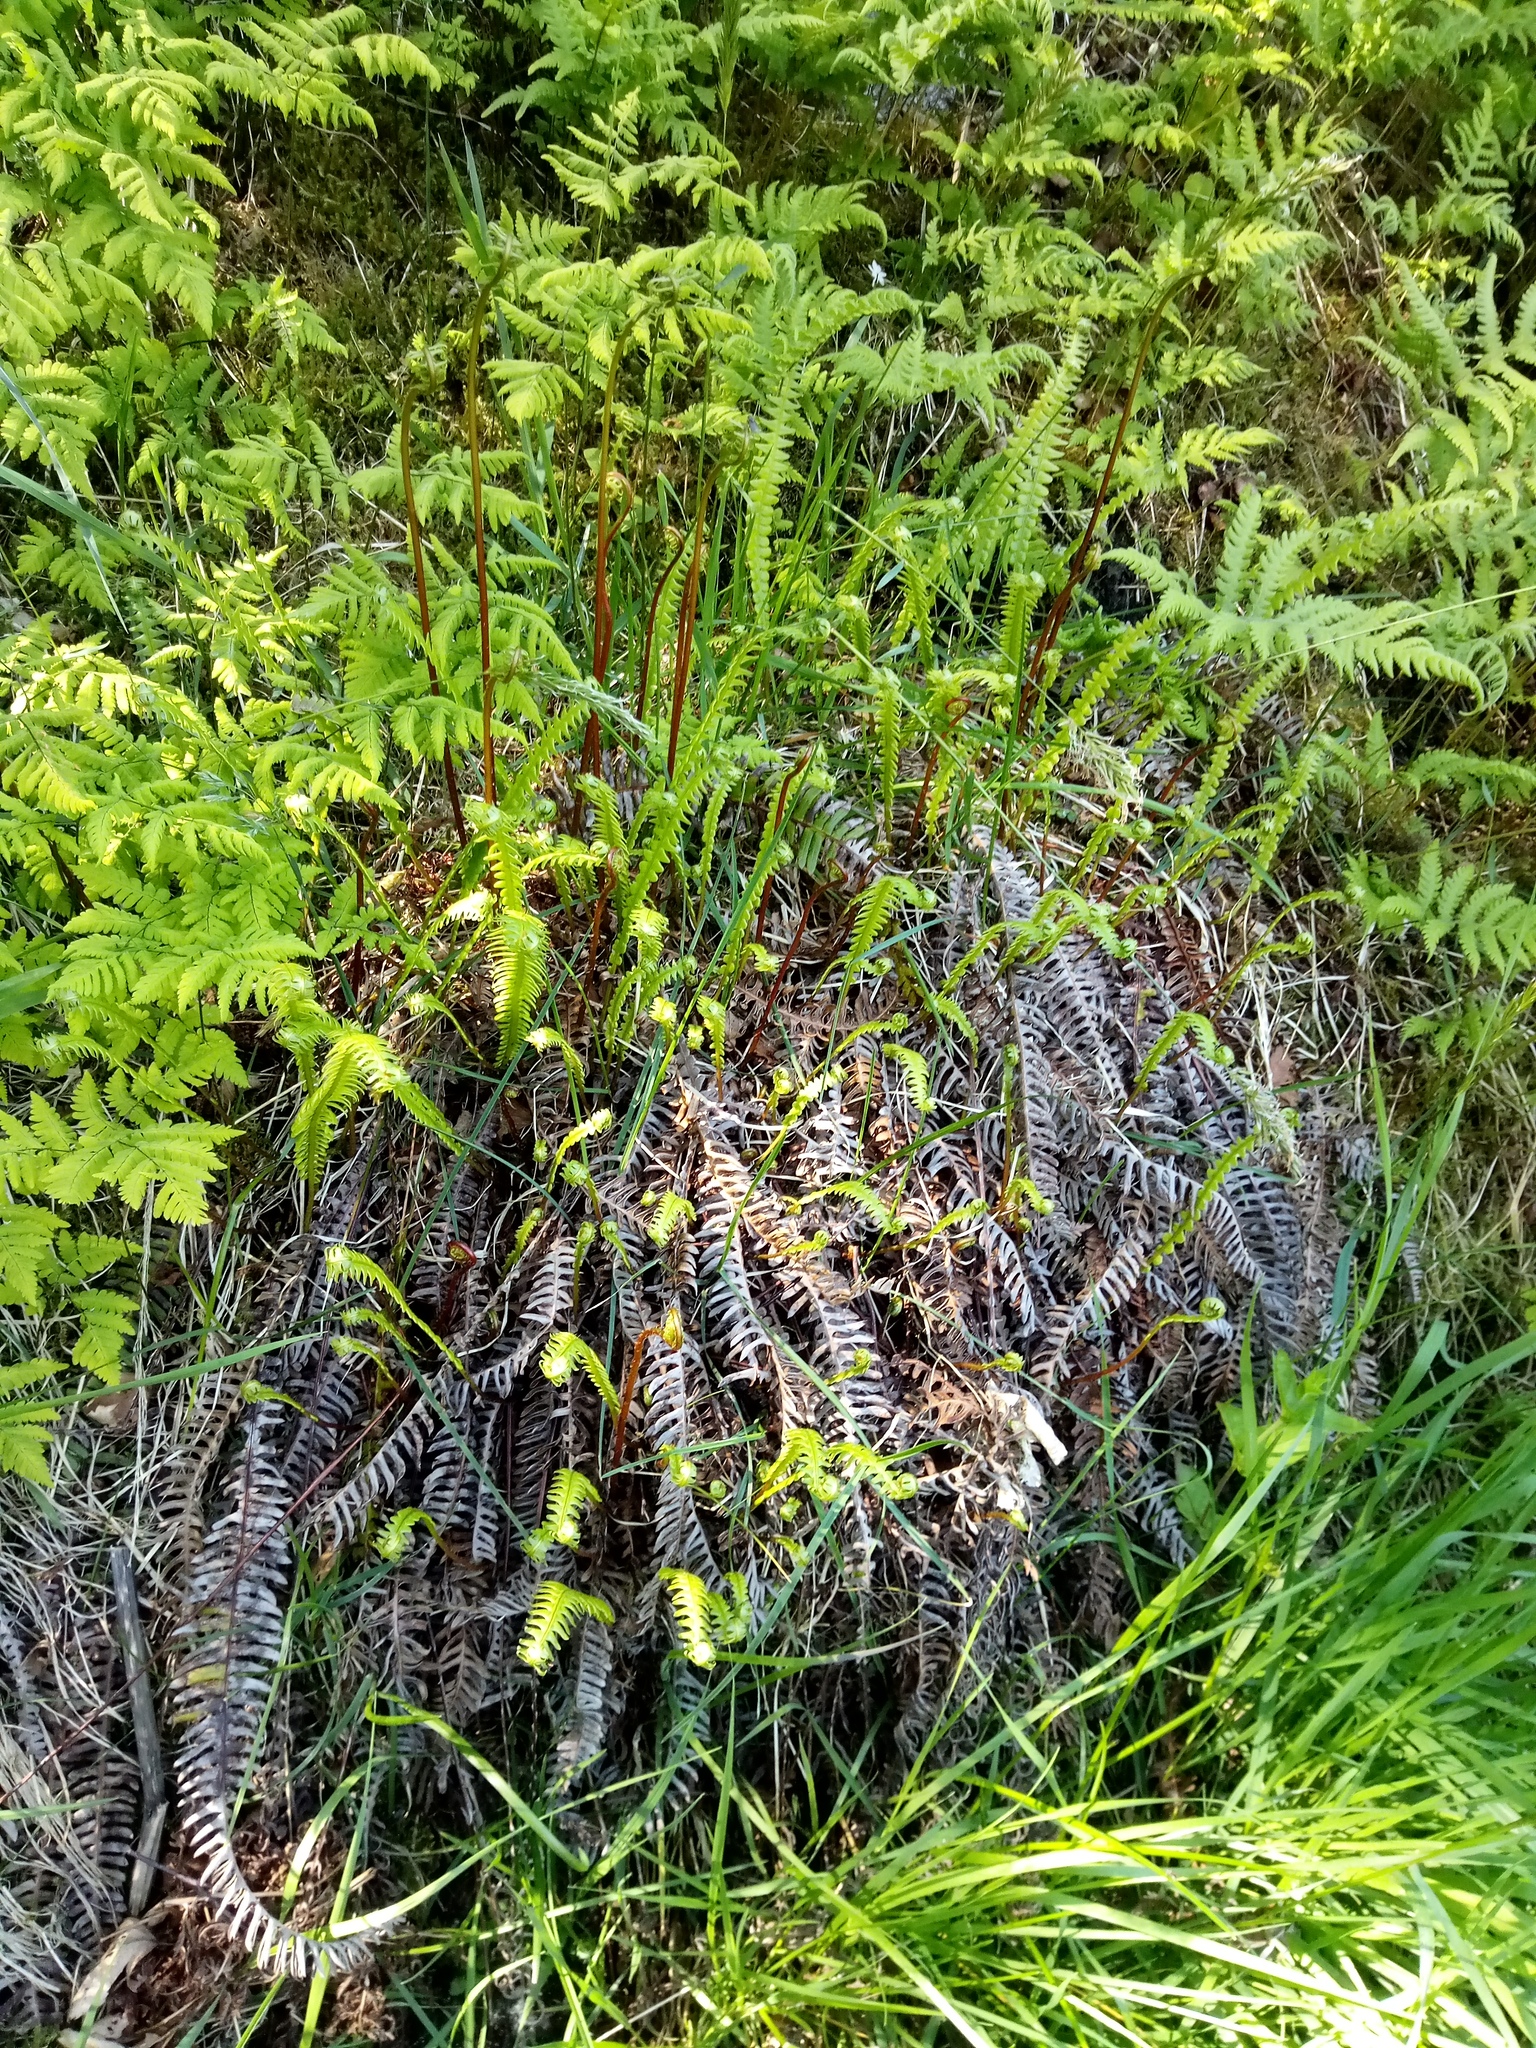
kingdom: Plantae
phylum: Tracheophyta
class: Polypodiopsida
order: Polypodiales
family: Blechnaceae
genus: Struthiopteris
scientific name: Struthiopteris spicant
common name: Deer fern
